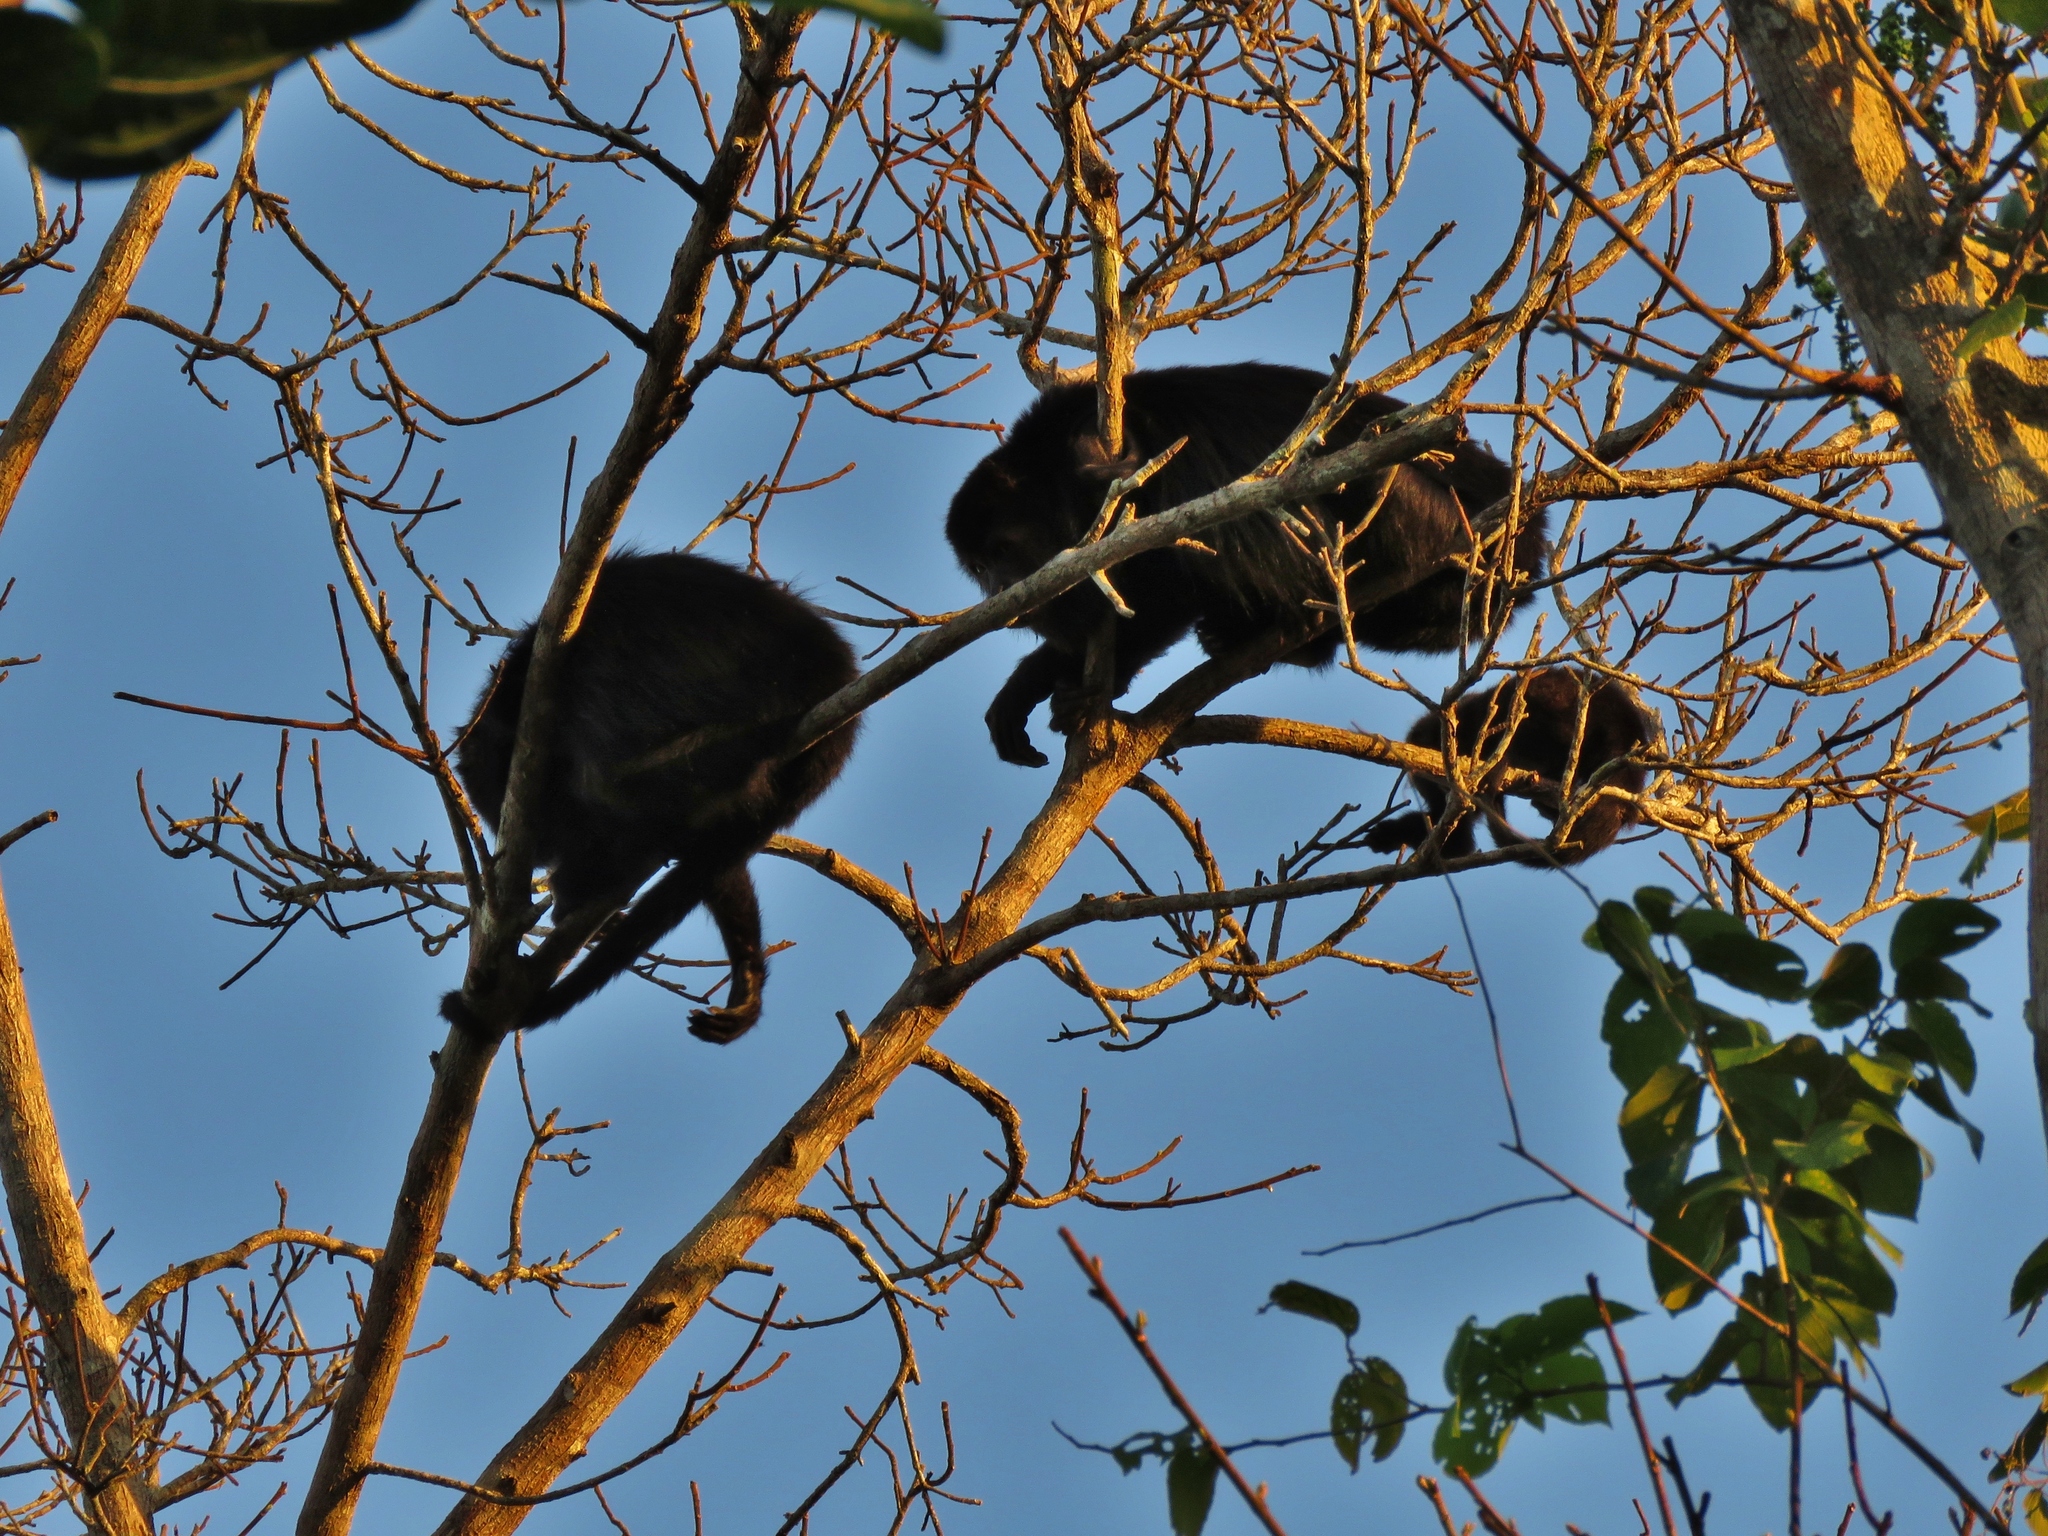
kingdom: Animalia
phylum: Chordata
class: Mammalia
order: Primates
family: Atelidae
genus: Alouatta
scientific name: Alouatta pigra
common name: Guatemalan black howler
